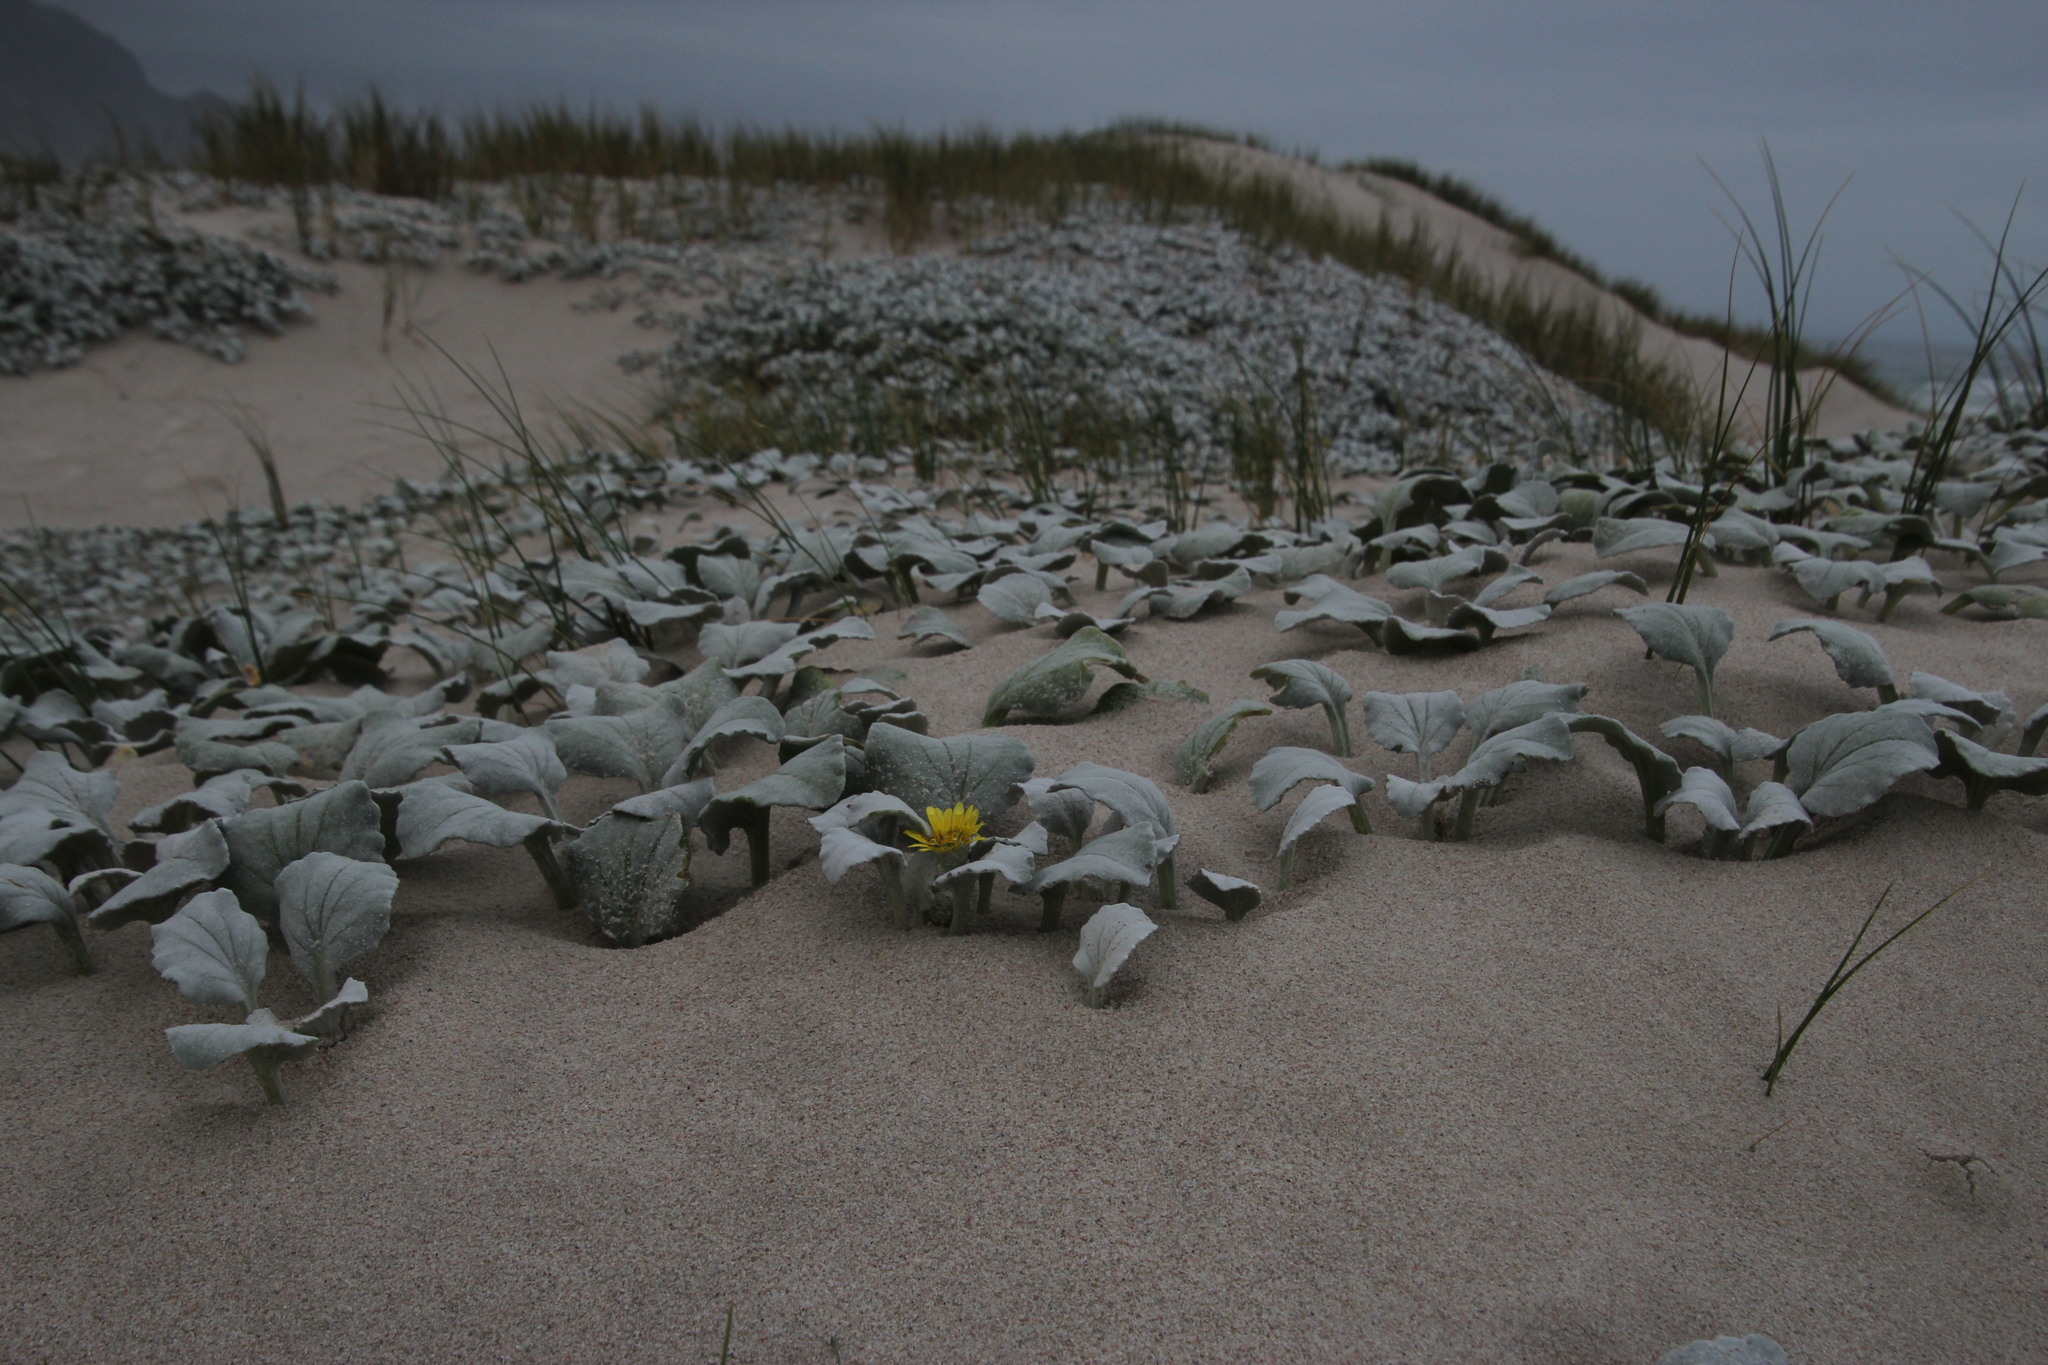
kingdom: Plantae
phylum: Tracheophyta
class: Magnoliopsida
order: Asterales
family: Asteraceae
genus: Arctotheca
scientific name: Arctotheca populifolia
